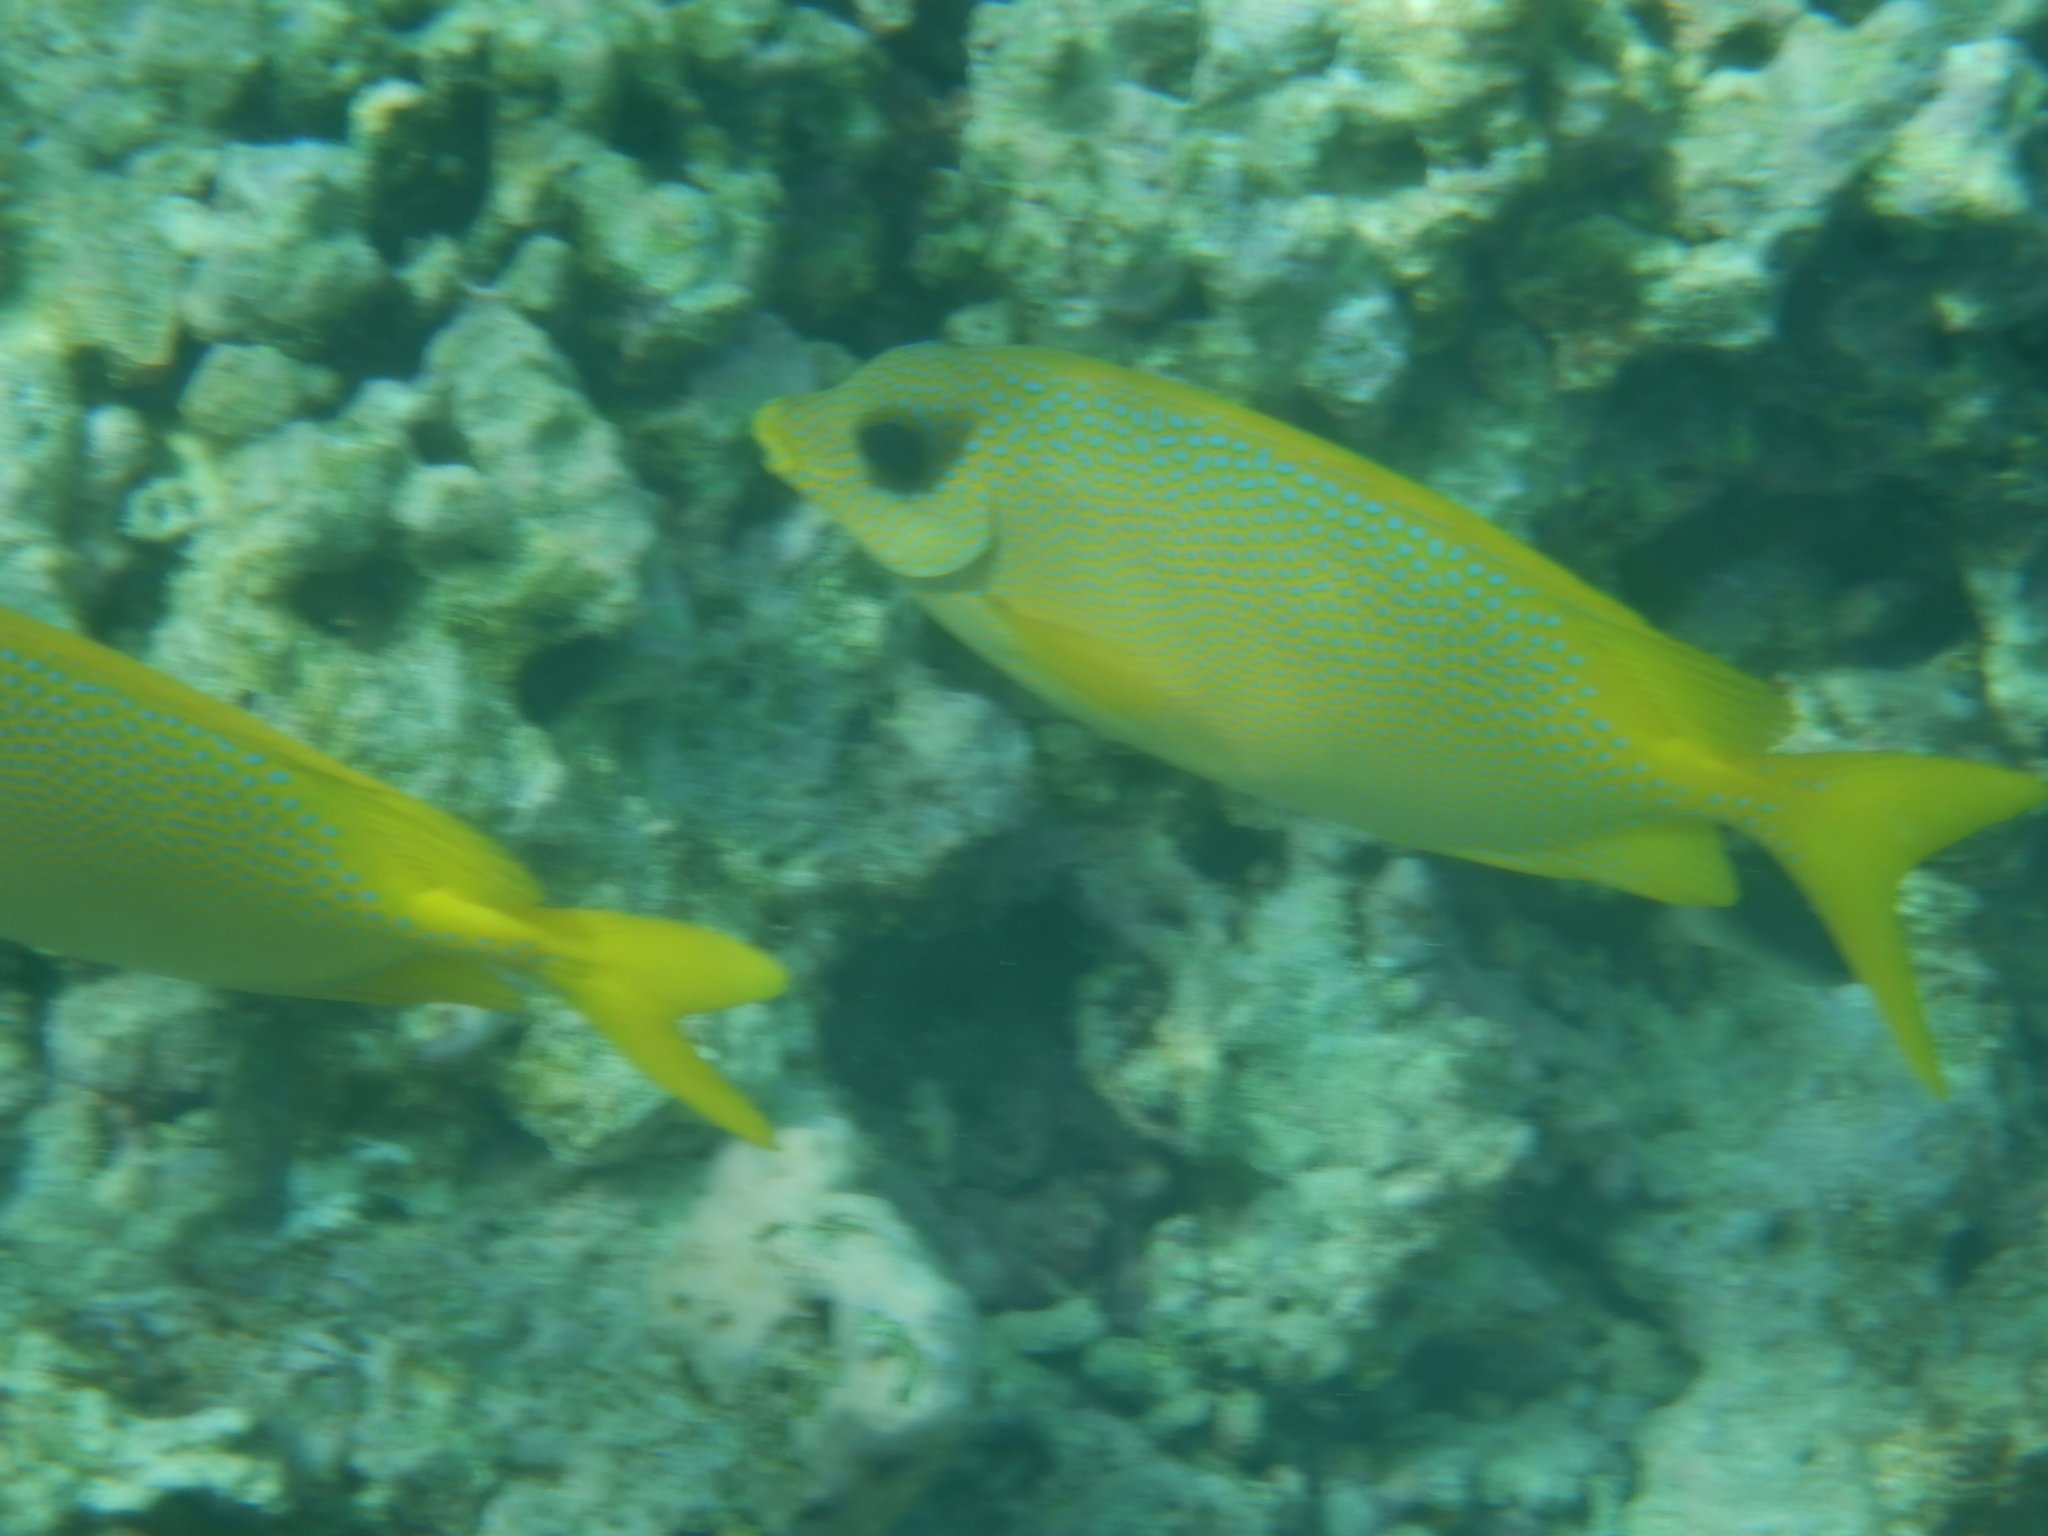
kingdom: Animalia
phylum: Chordata
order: Perciformes
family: Siganidae
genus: Siganus
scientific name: Siganus corallinus
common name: Coral rabbitfish
